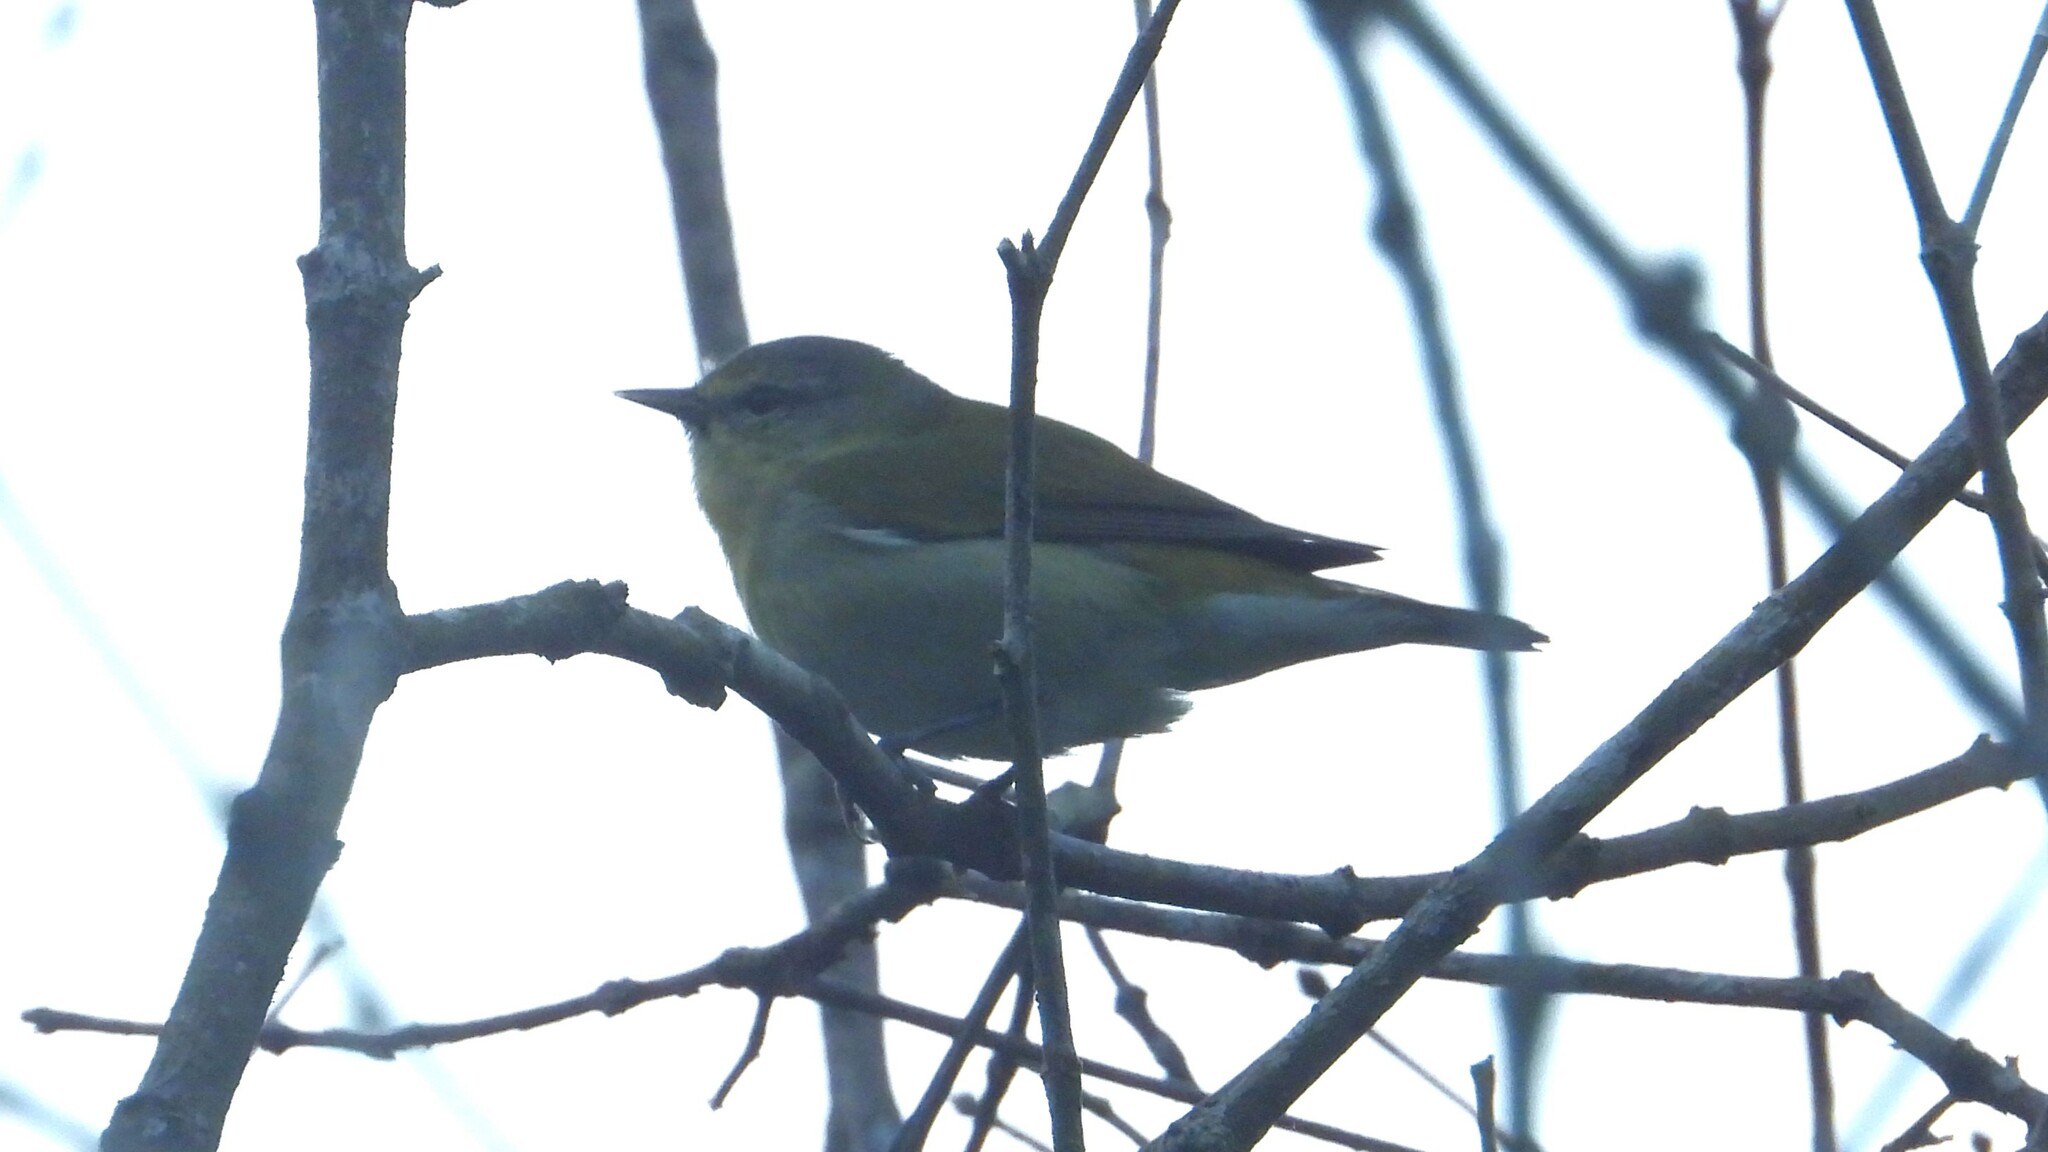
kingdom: Animalia
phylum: Chordata
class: Aves
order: Passeriformes
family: Parulidae
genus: Leiothlypis
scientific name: Leiothlypis peregrina
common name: Tennessee warbler
